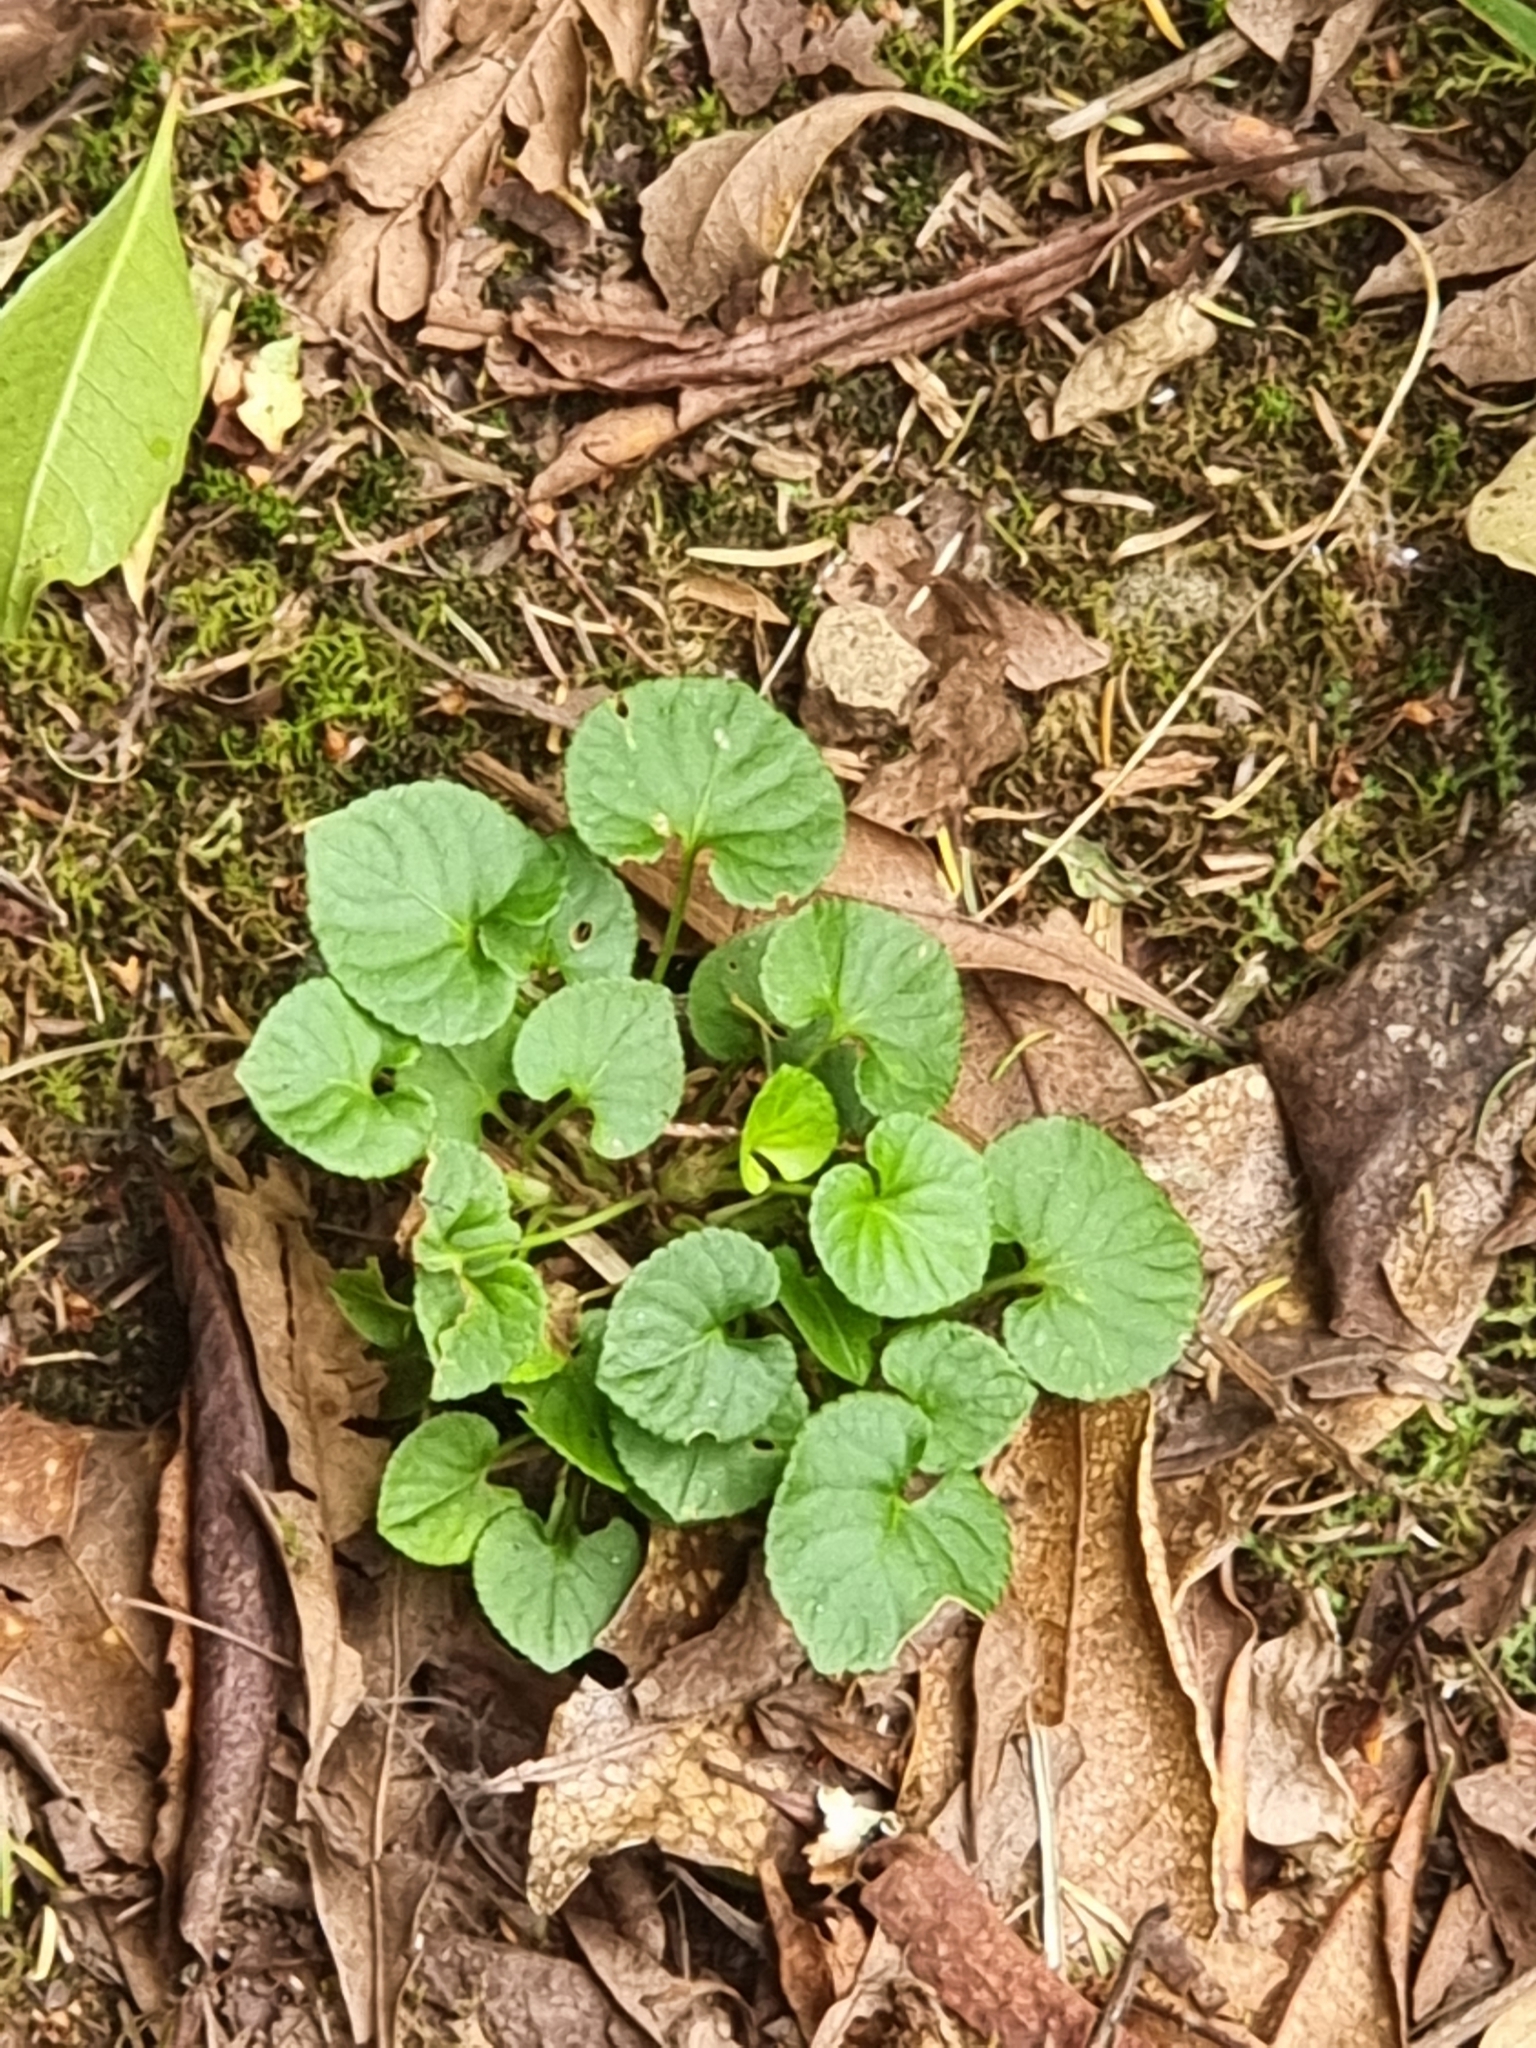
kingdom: Plantae
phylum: Tracheophyta
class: Magnoliopsida
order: Malpighiales
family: Violaceae
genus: Viola
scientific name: Viola riviniana
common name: Common dog-violet
